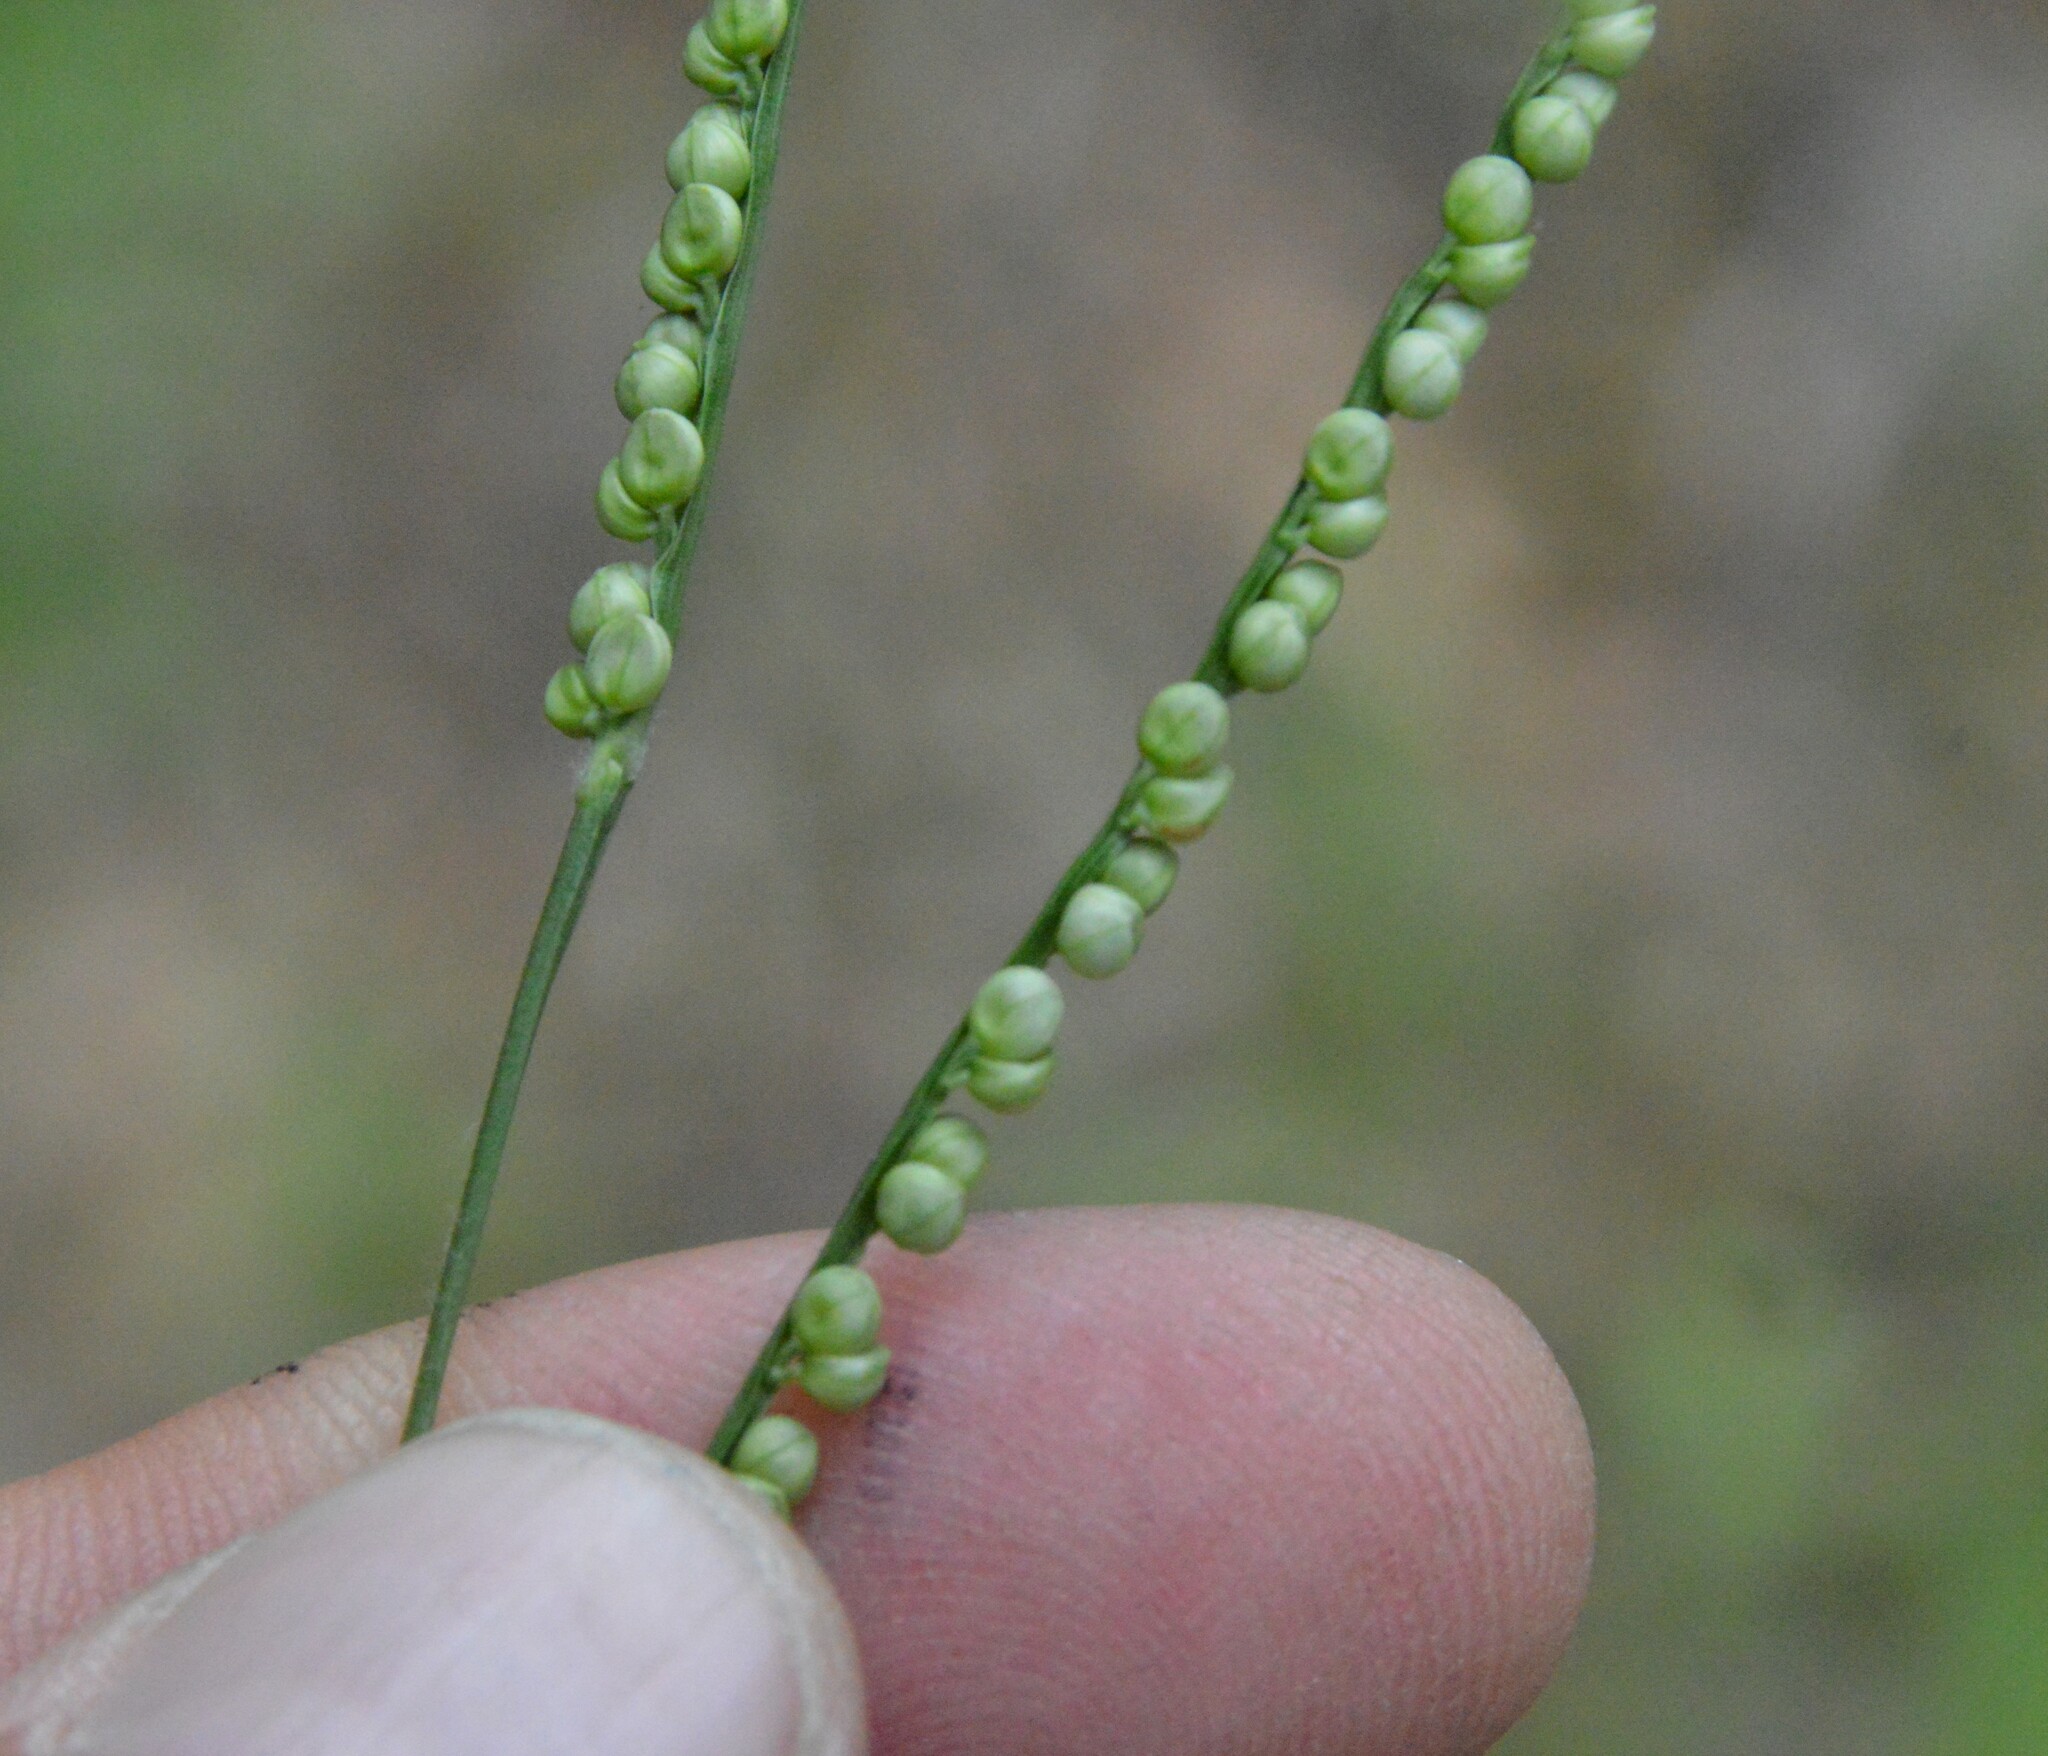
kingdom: Plantae
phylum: Tracheophyta
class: Liliopsida
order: Poales
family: Poaceae
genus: Paspalum
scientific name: Paspalum setaceum
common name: Slender paspalum
